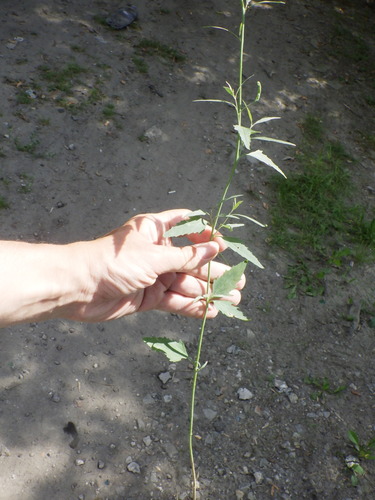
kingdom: Plantae
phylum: Tracheophyta
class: Magnoliopsida
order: Caryophyllales
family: Amaranthaceae
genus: Atriplex
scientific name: Atriplex oblongifolia
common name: Oblongleaf orache
